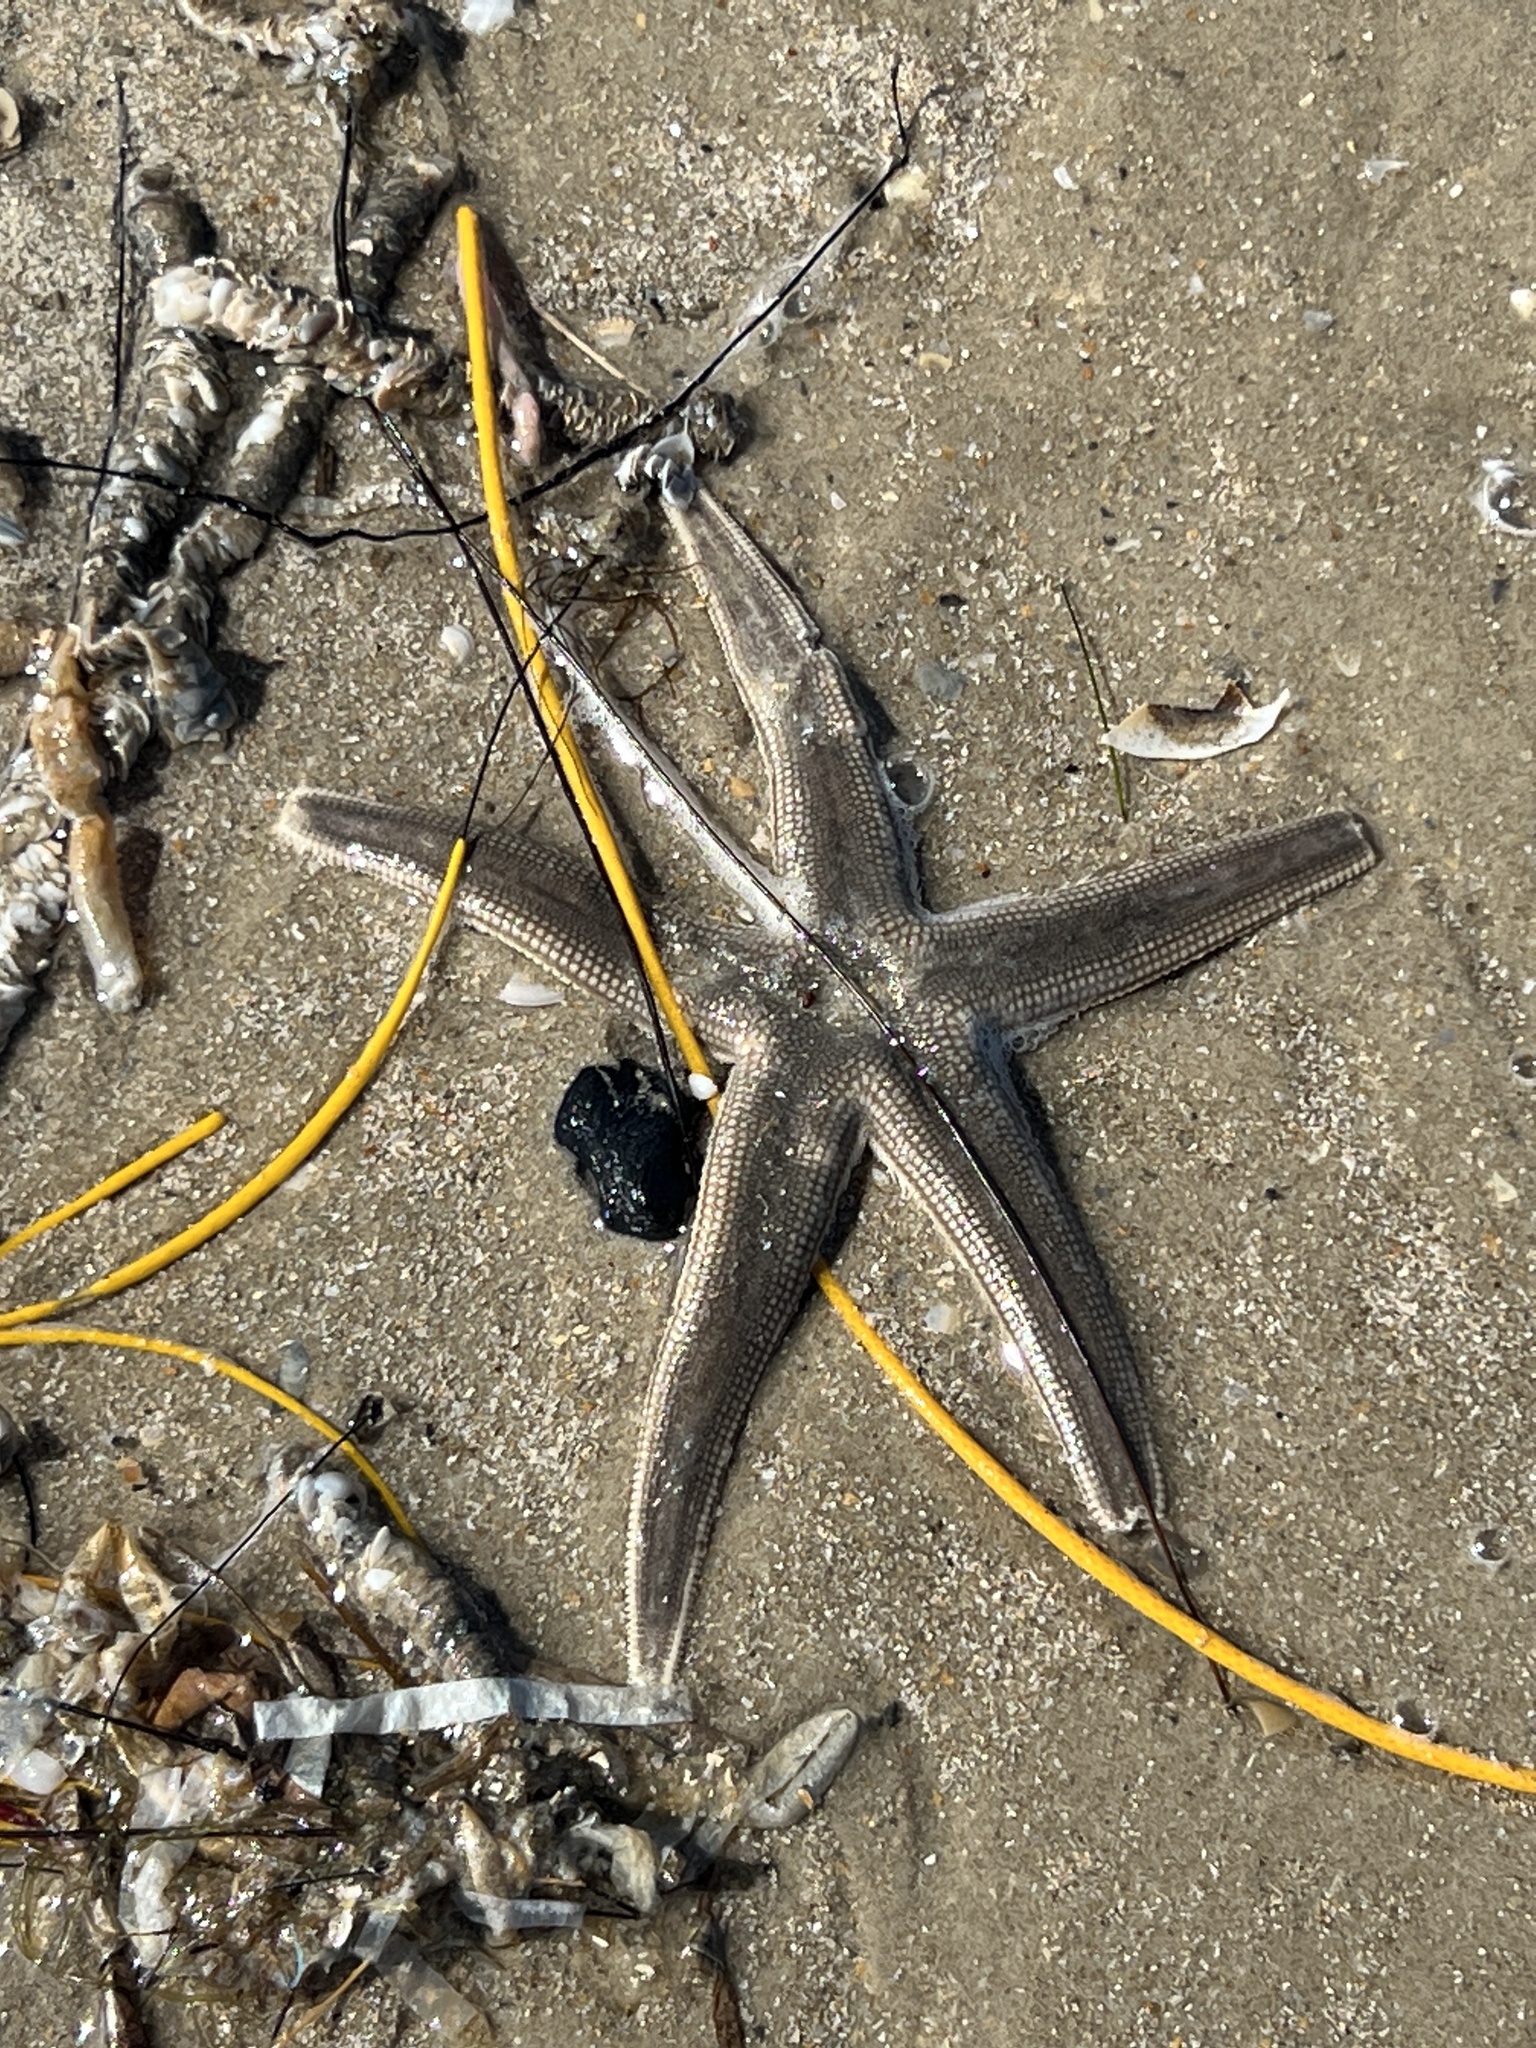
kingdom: Animalia
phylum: Echinodermata
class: Asteroidea
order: Paxillosida
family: Luidiidae
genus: Luidia
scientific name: Luidia clathrata
